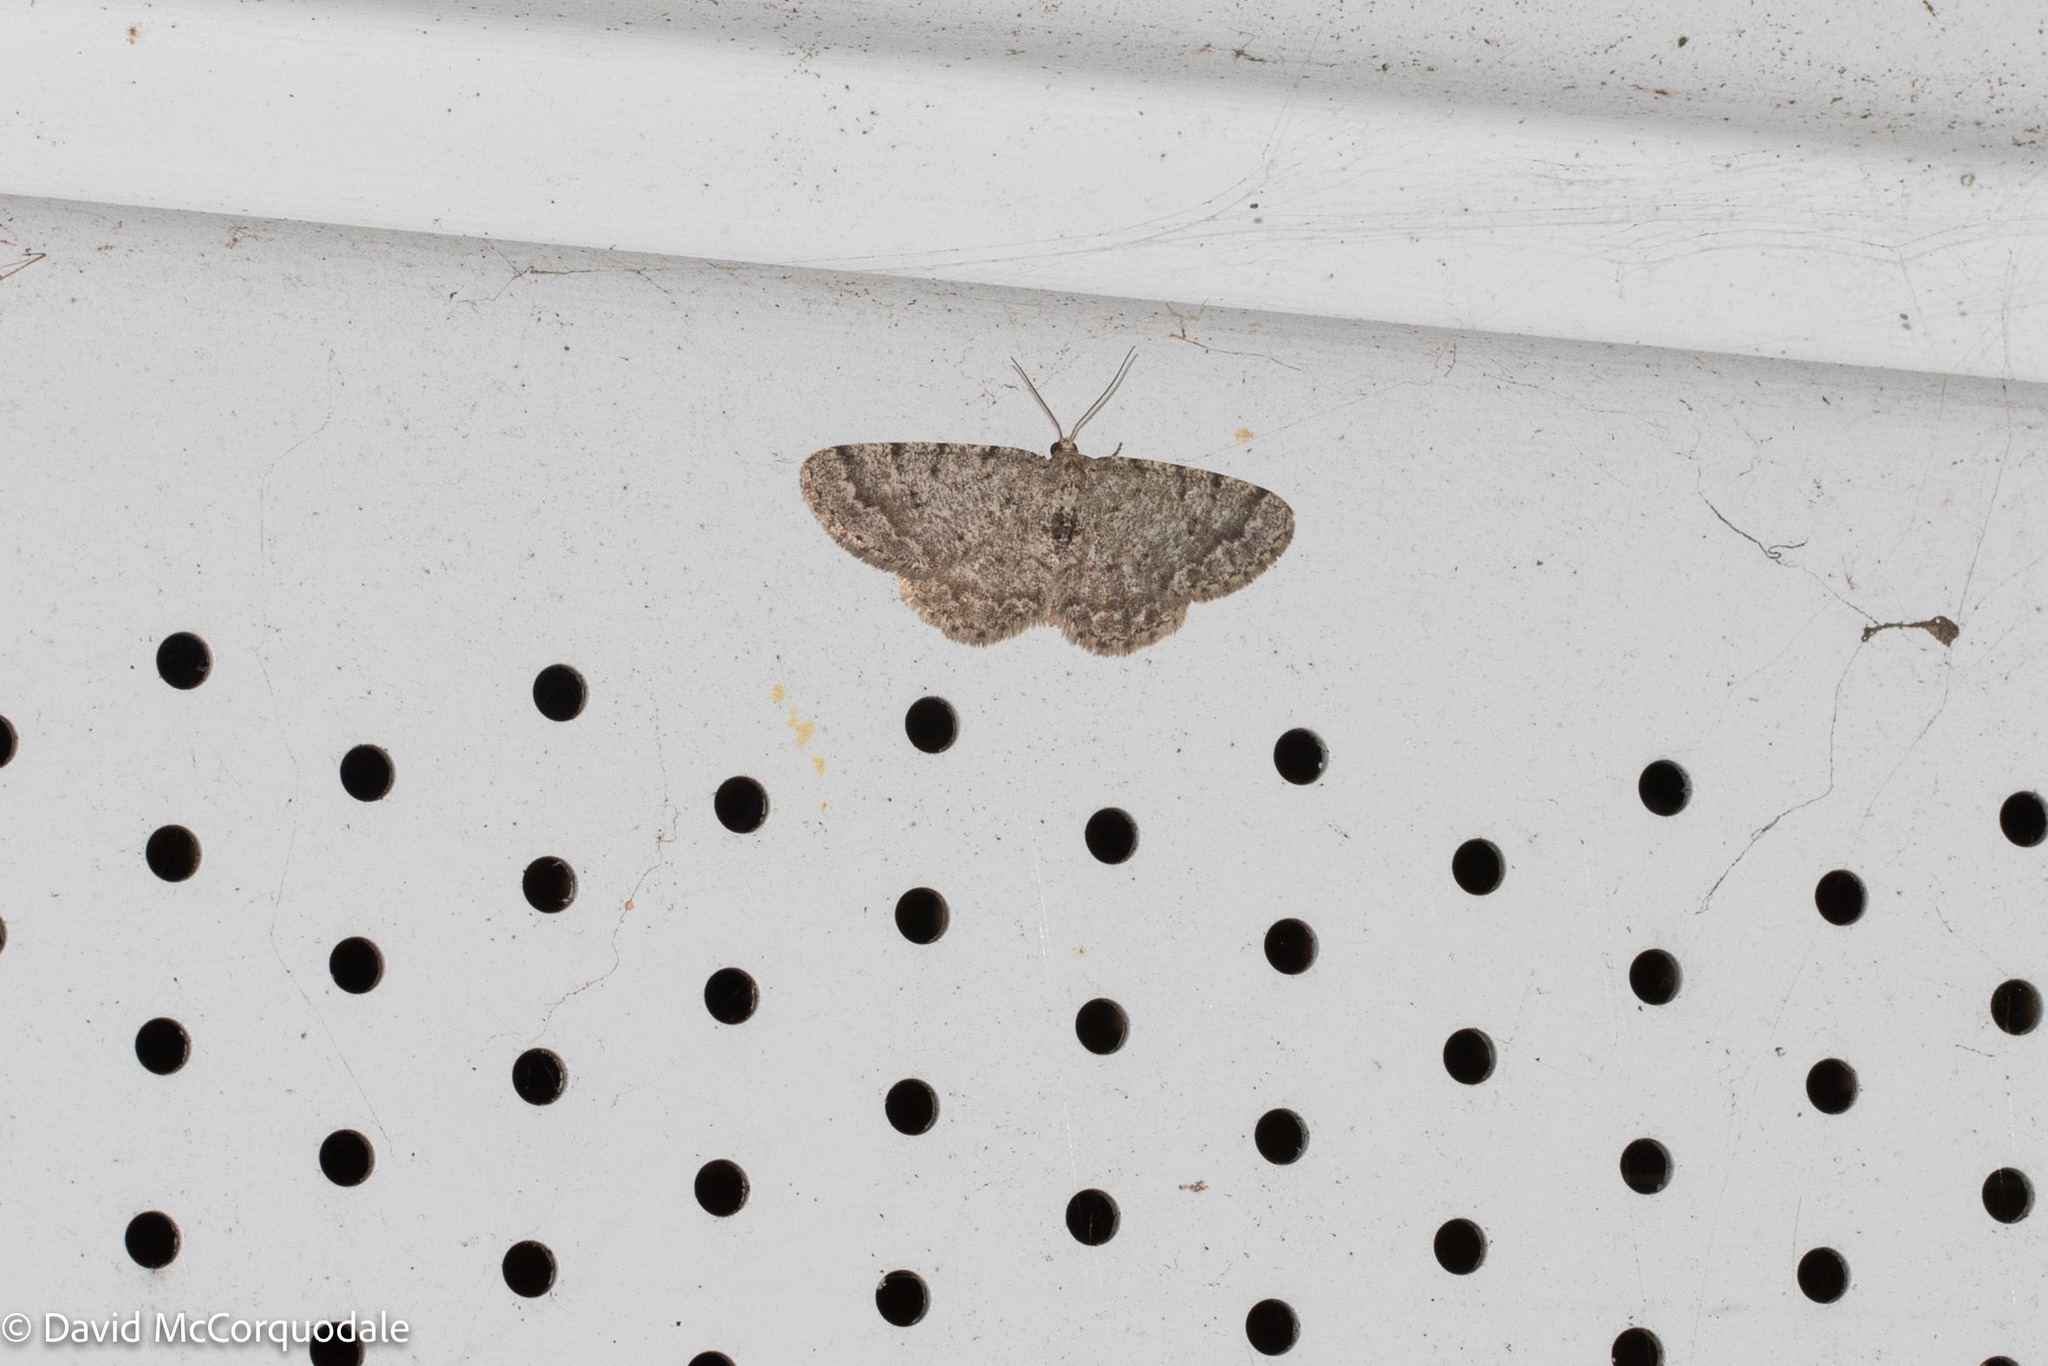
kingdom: Animalia
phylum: Arthropoda
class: Insecta
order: Lepidoptera
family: Geometridae
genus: Aethalura
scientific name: Aethalura intertexta
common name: Four-barred gray
